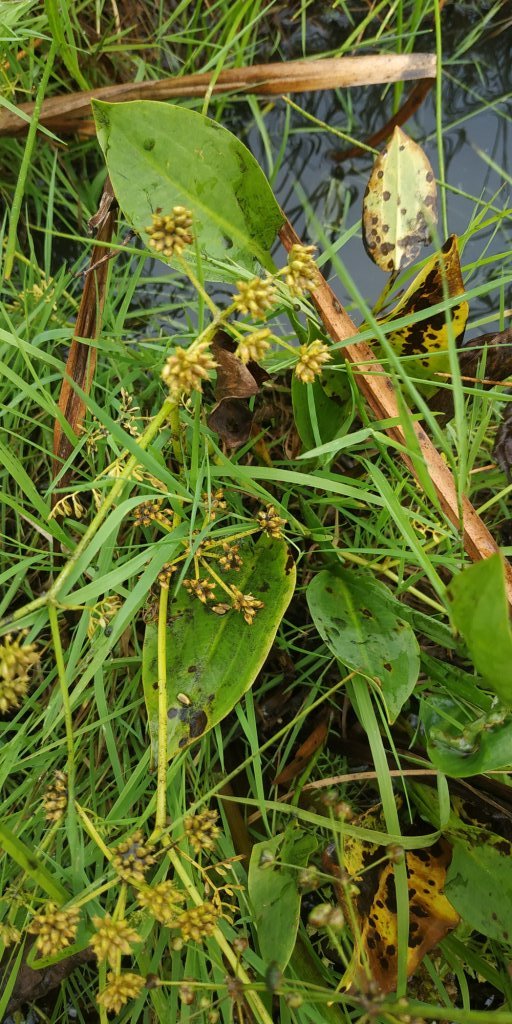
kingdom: Plantae
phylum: Tracheophyta
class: Magnoliopsida
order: Apiales
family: Apiaceae
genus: Oenanthe
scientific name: Oenanthe aquatica
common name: Fine-leaved water-dropwort
